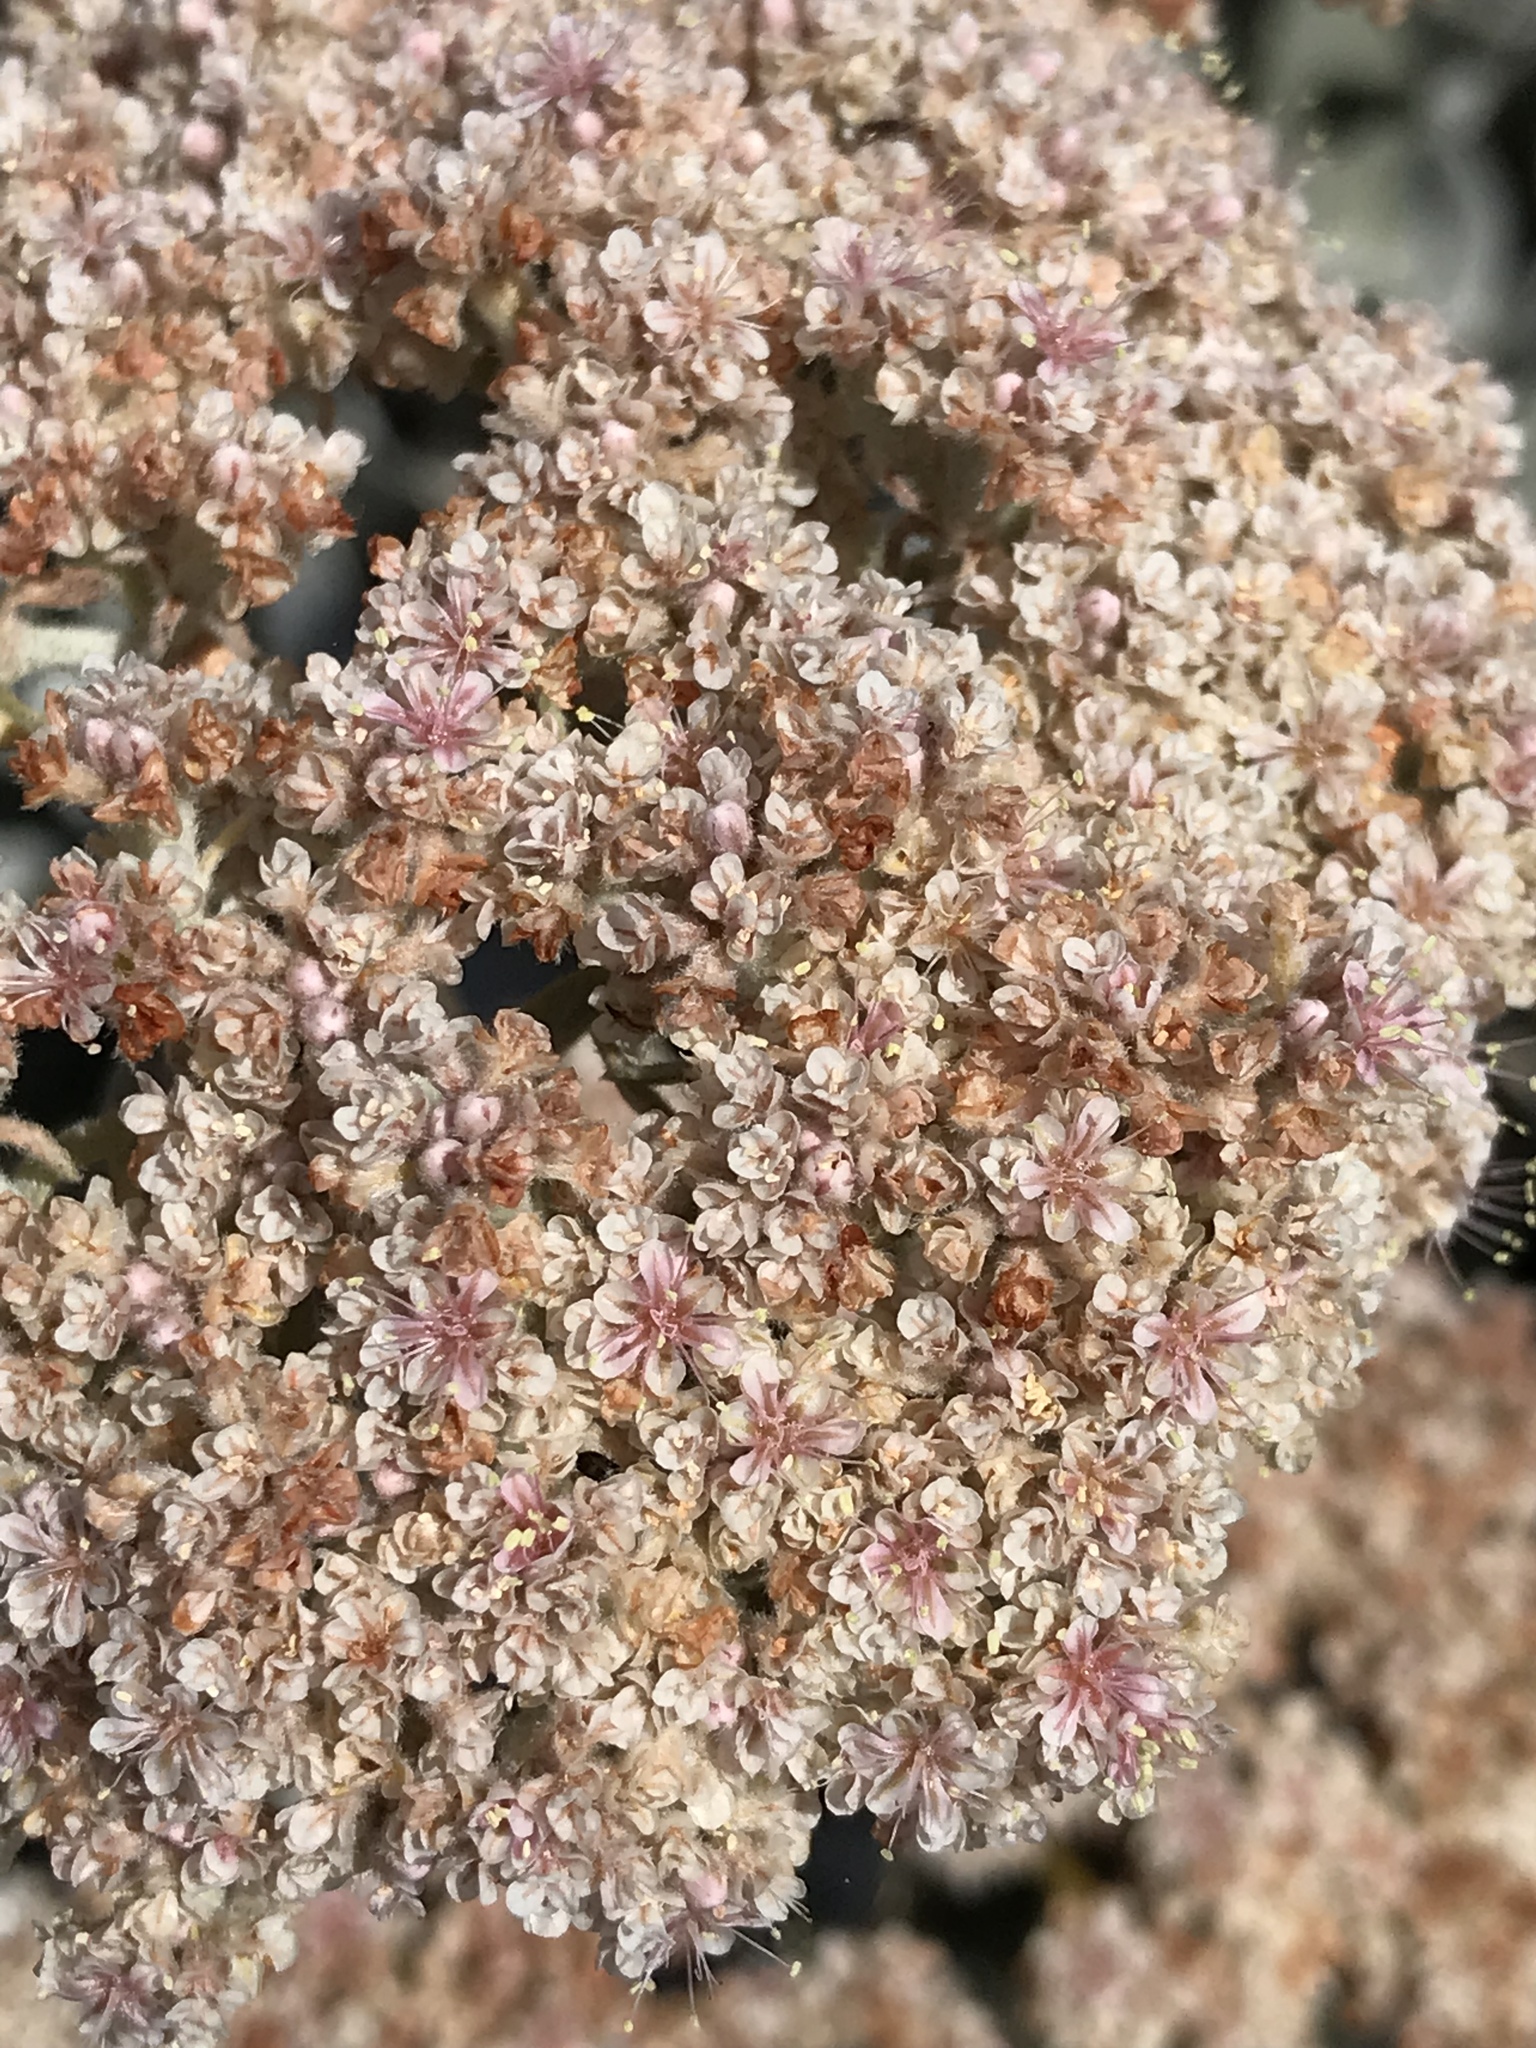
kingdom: Plantae
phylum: Tracheophyta
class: Magnoliopsida
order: Caryophyllales
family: Polygonaceae
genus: Eriogonum
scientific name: Eriogonum giganteum
